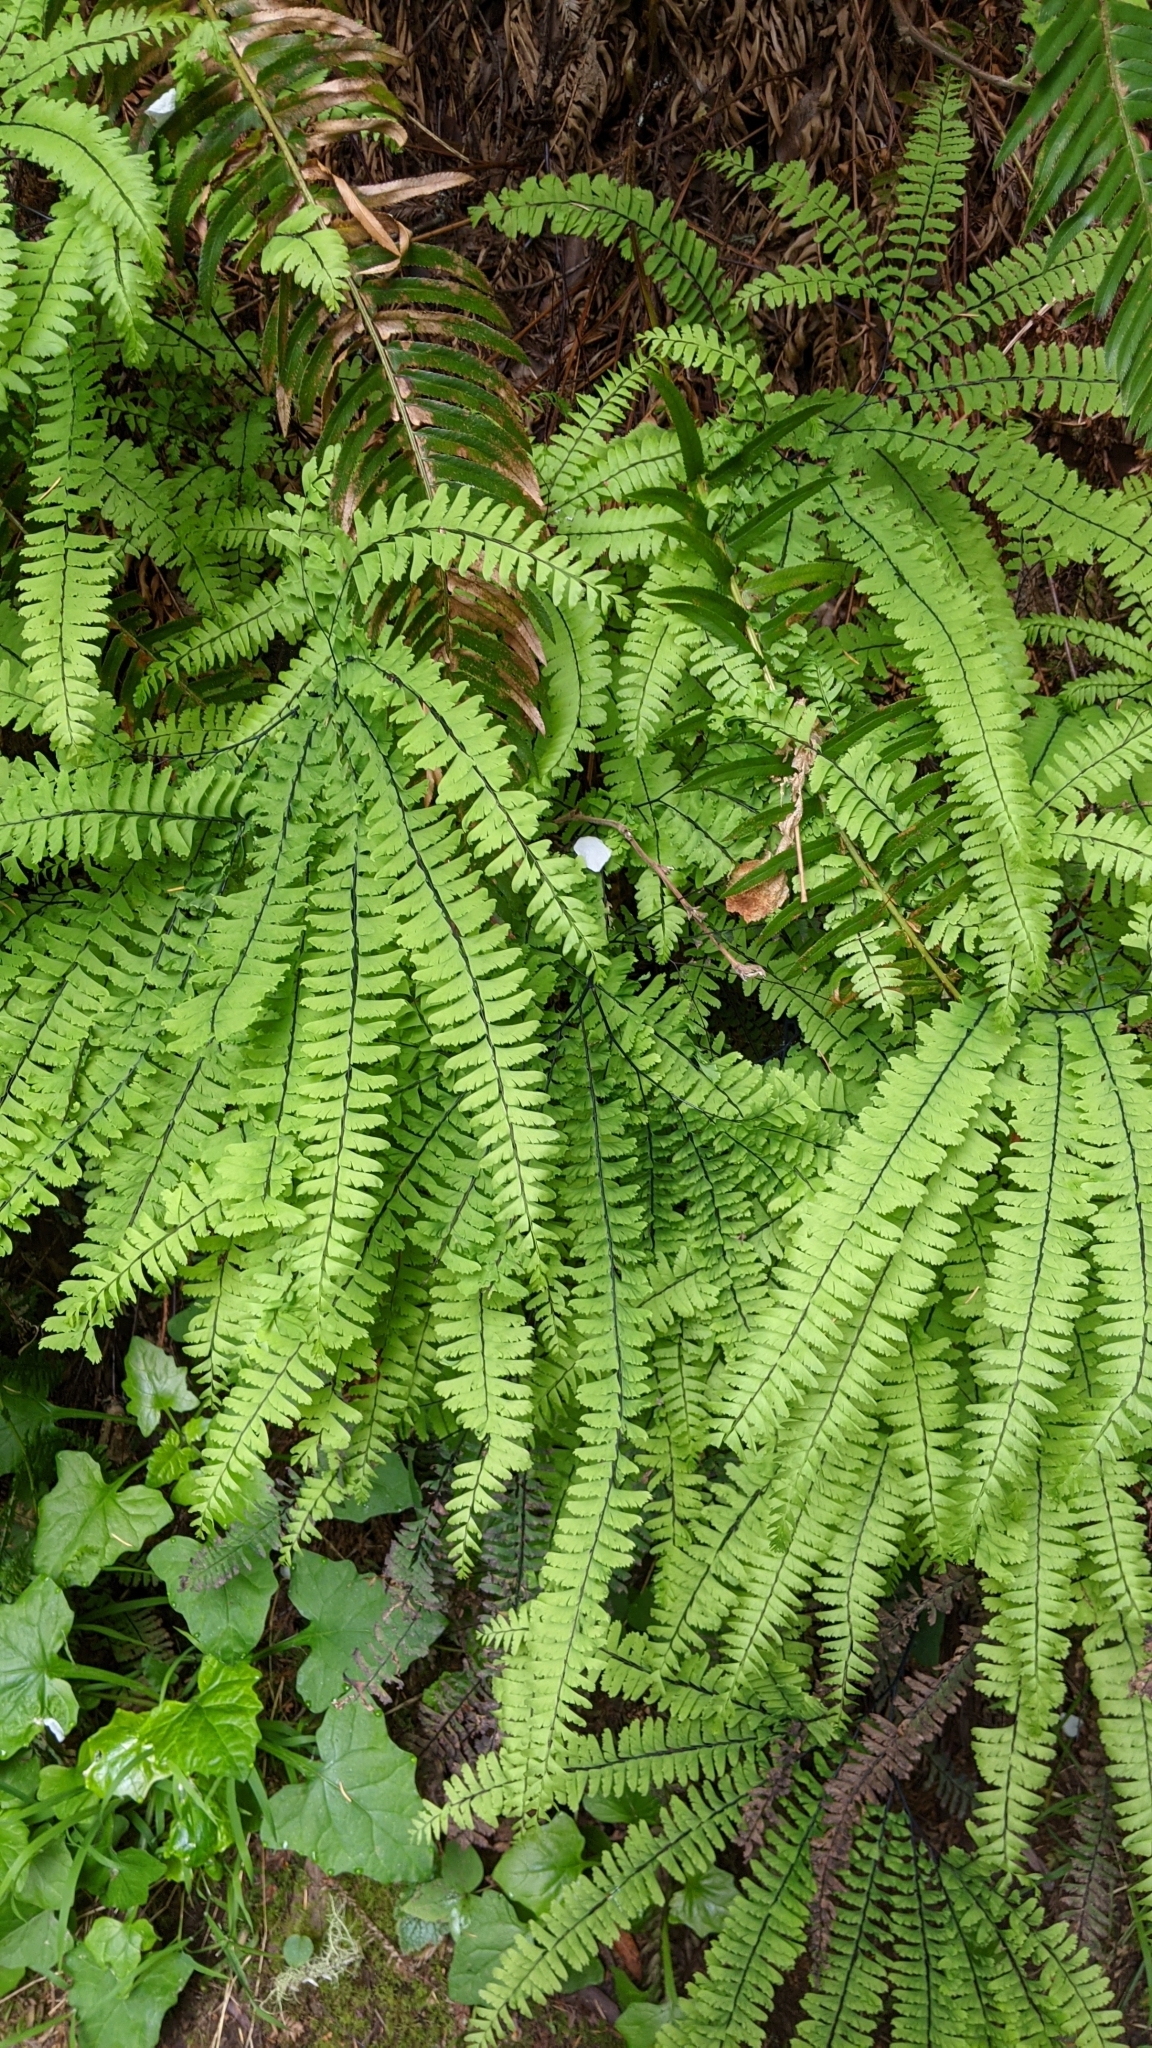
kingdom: Plantae
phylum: Tracheophyta
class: Polypodiopsida
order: Polypodiales
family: Pteridaceae
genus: Adiantum
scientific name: Adiantum aleuticum
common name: Aleutian maidenhair fern
